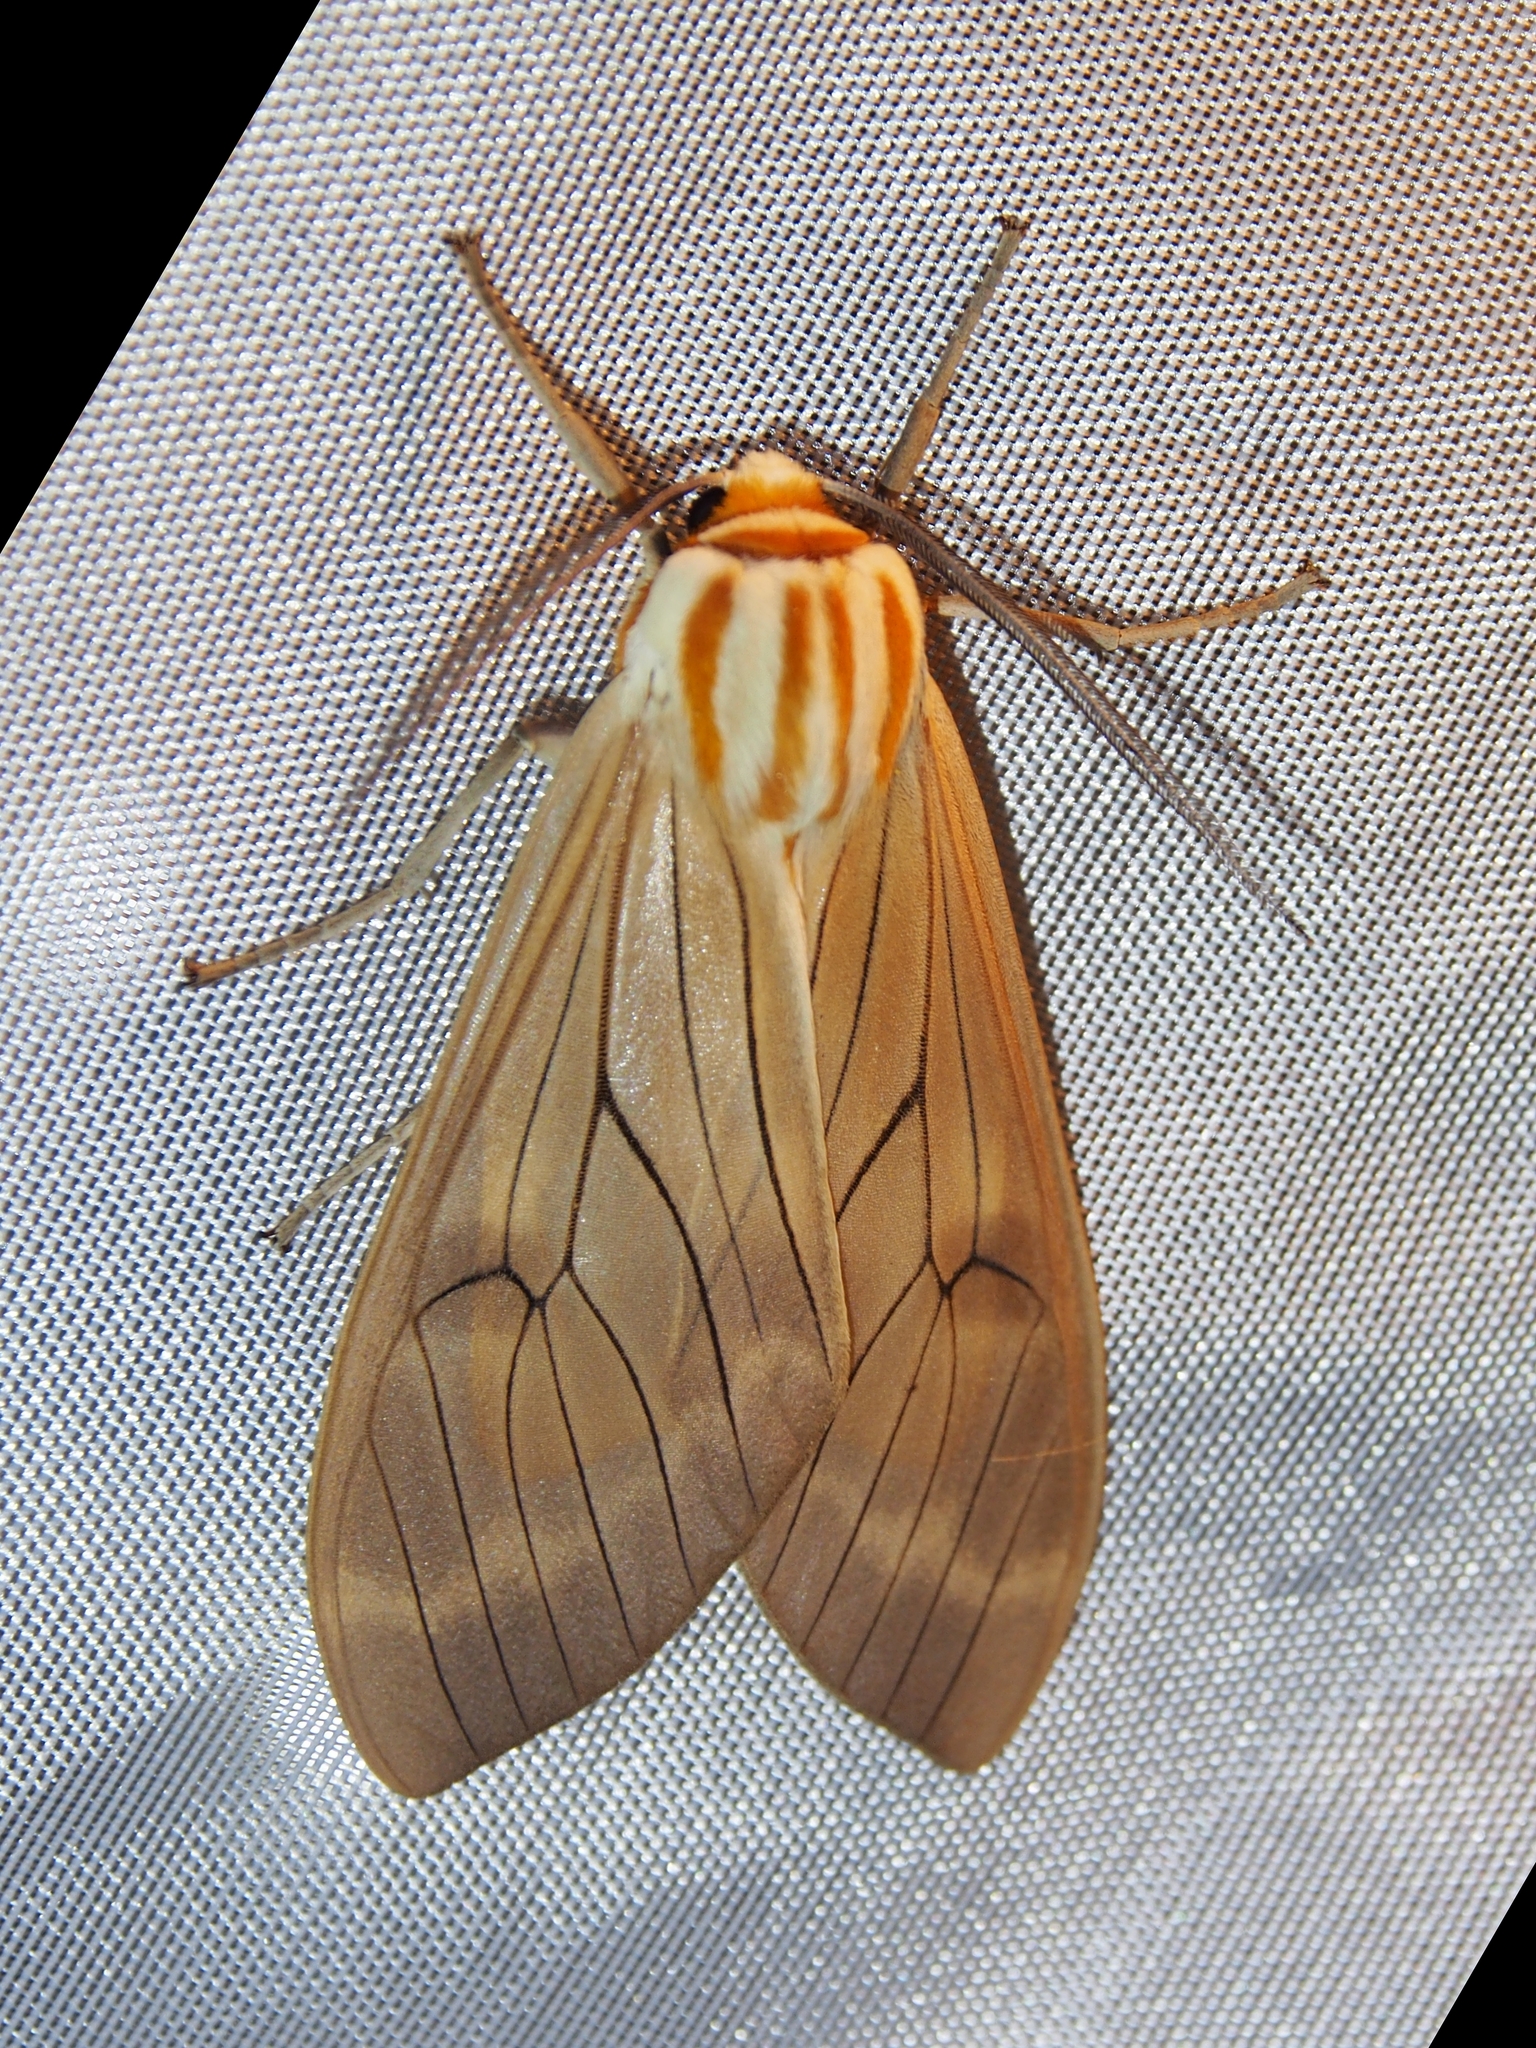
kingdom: Animalia
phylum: Arthropoda
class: Insecta
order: Lepidoptera
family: Erebidae
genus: Amastus
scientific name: Amastus aconia
